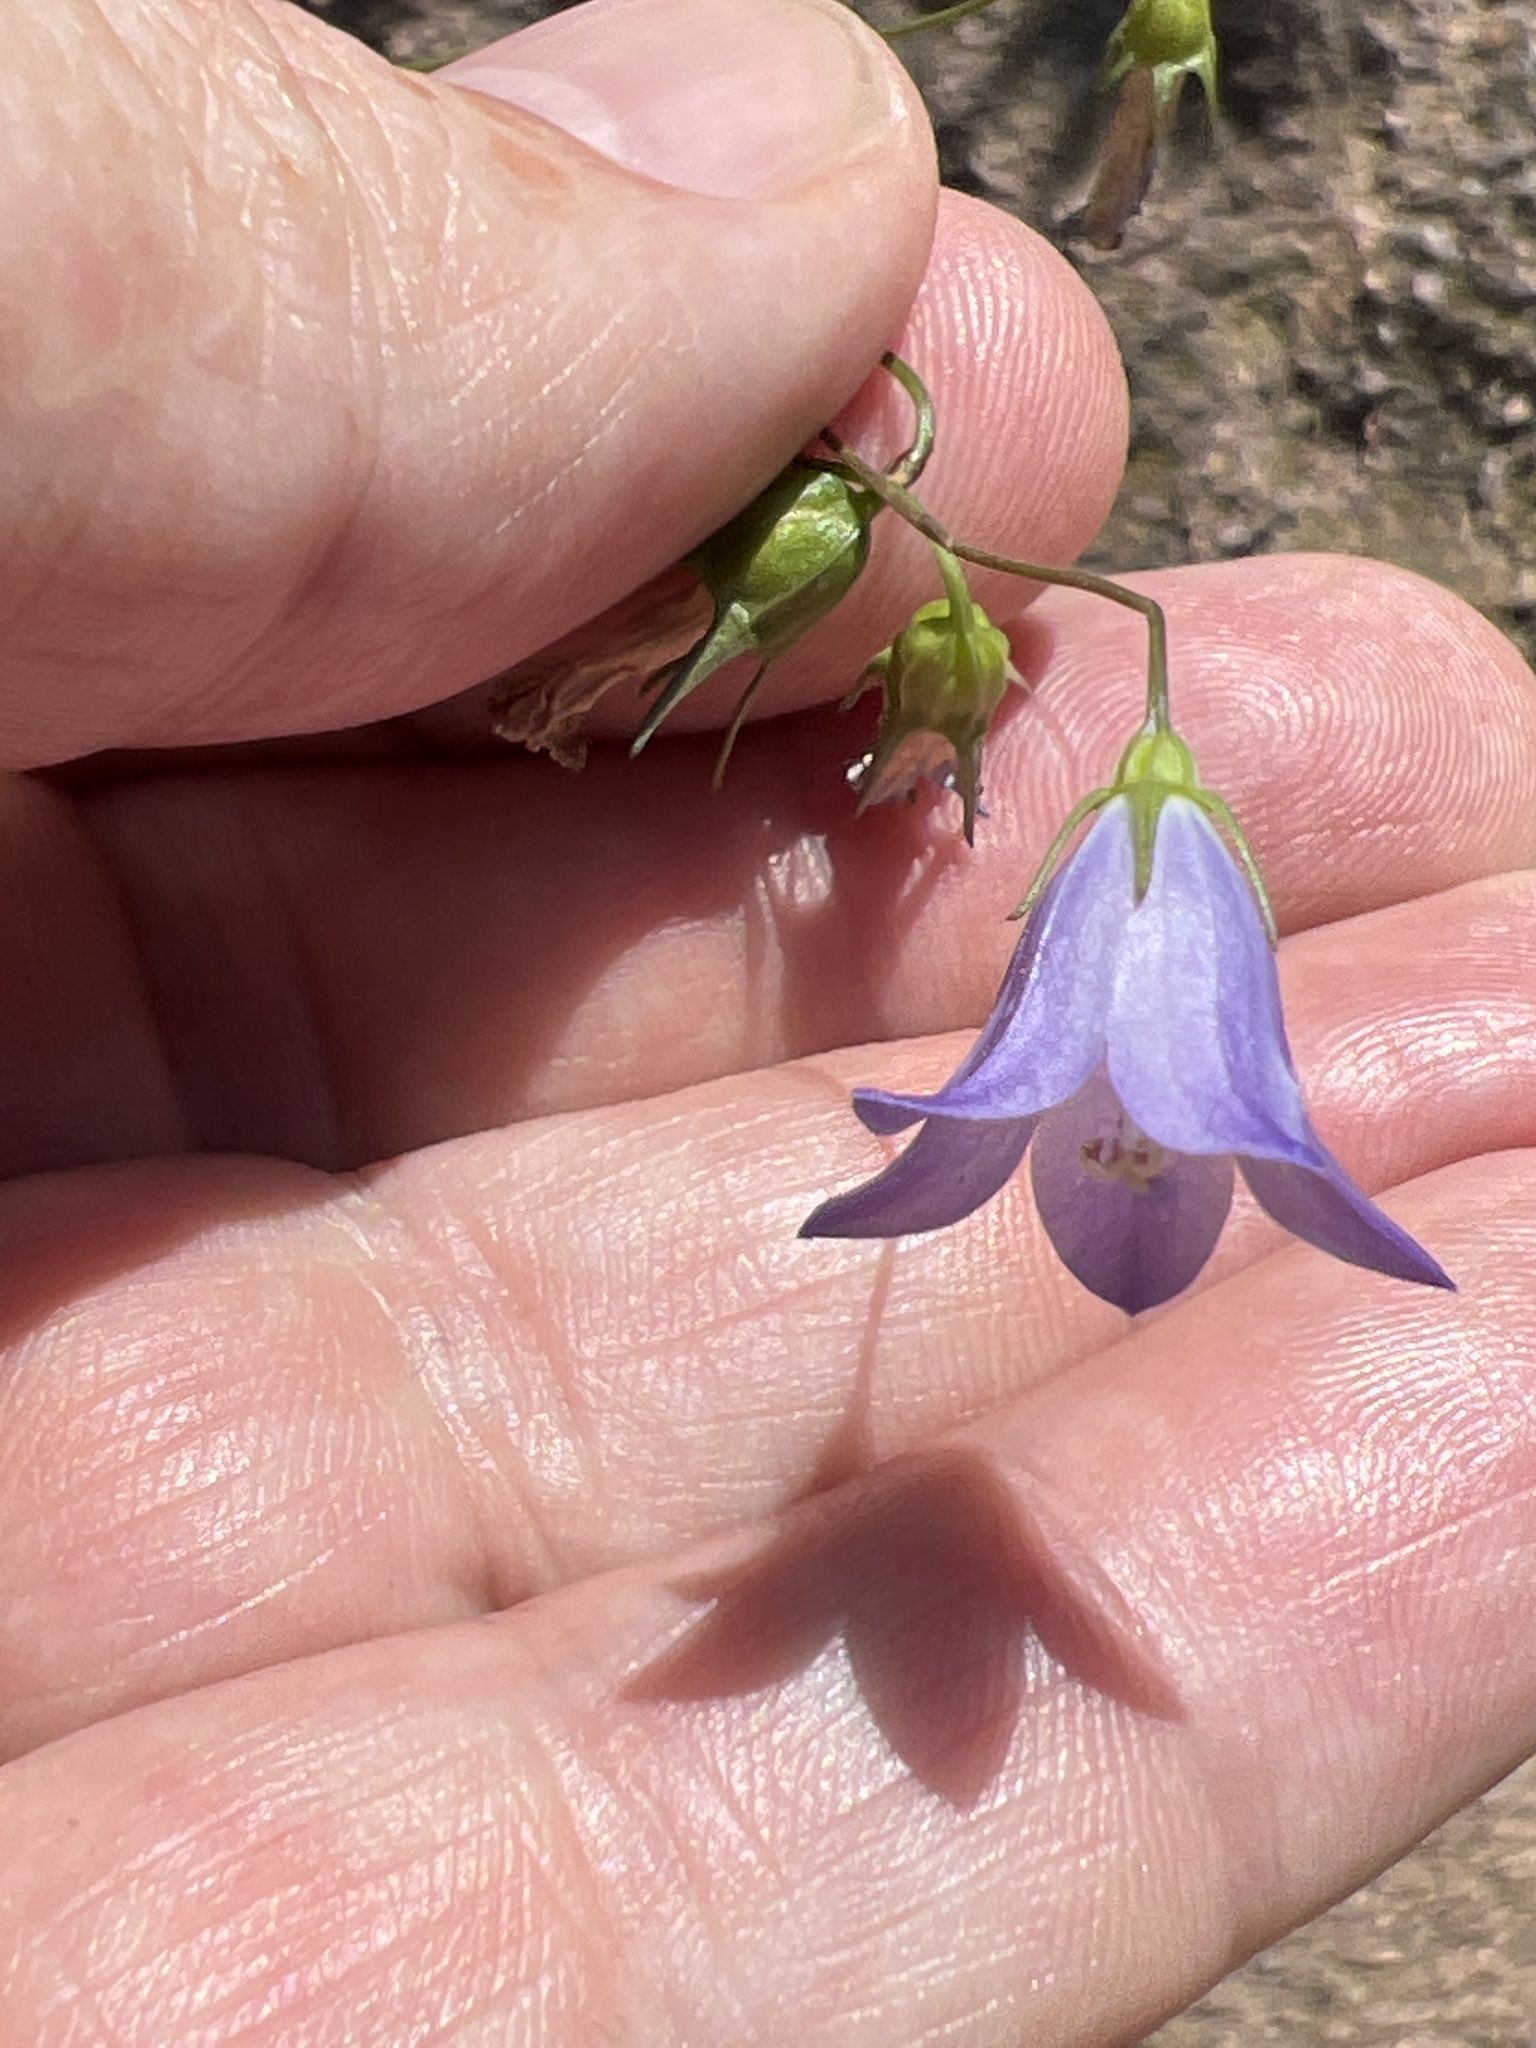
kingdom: Plantae
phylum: Tracheophyta
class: Magnoliopsida
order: Asterales
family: Campanulaceae
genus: Campanula
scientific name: Campanula petiolata
